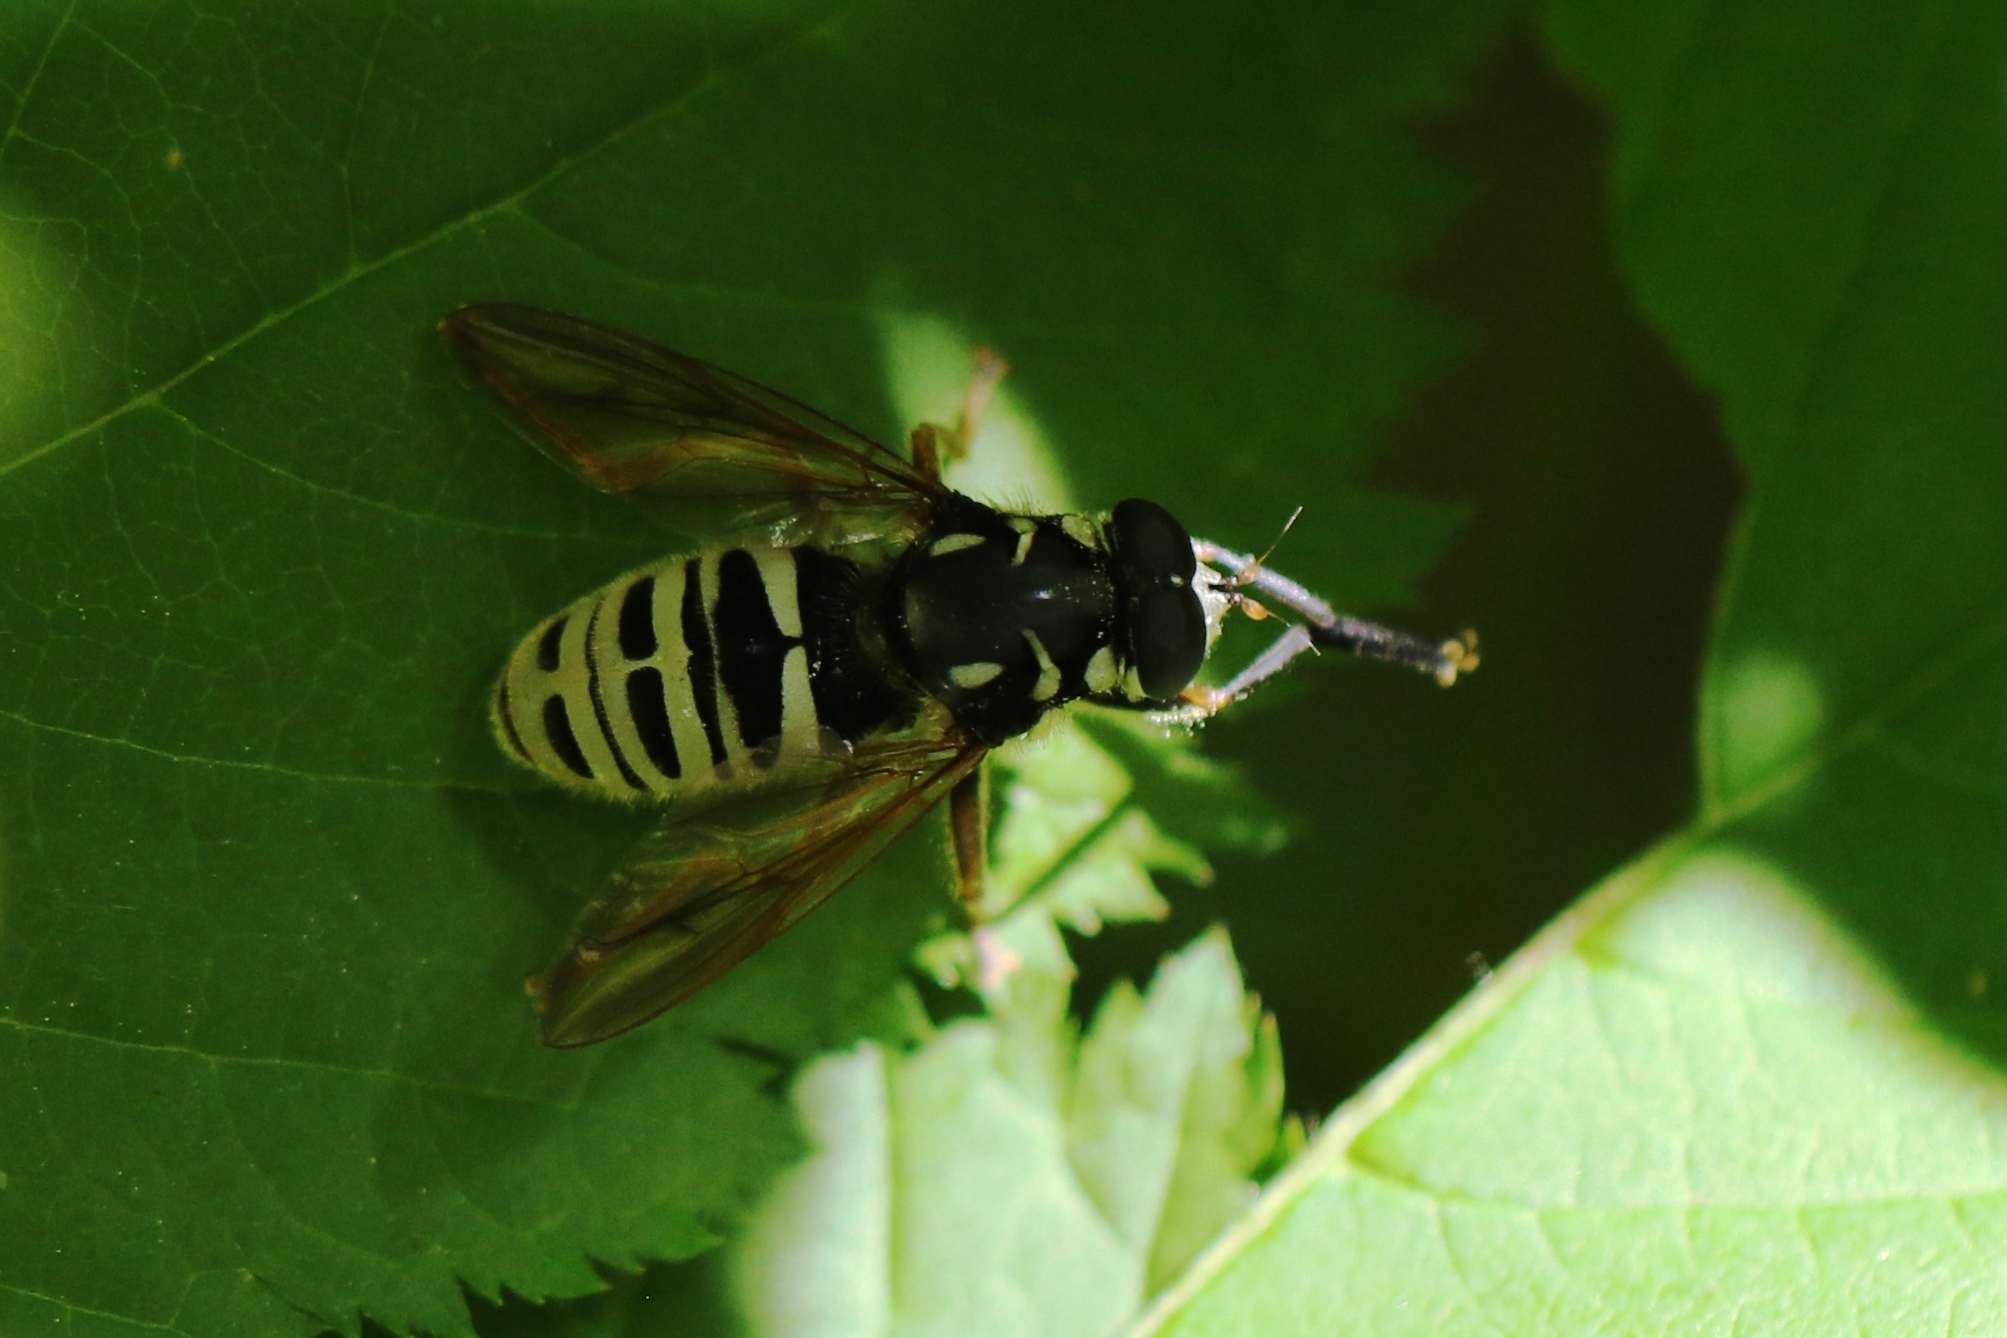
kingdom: Animalia
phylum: Arthropoda
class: Insecta
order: Diptera
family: Syrphidae
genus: Temnostoma
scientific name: Temnostoma excentricum
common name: Black-spotted falsehorn
